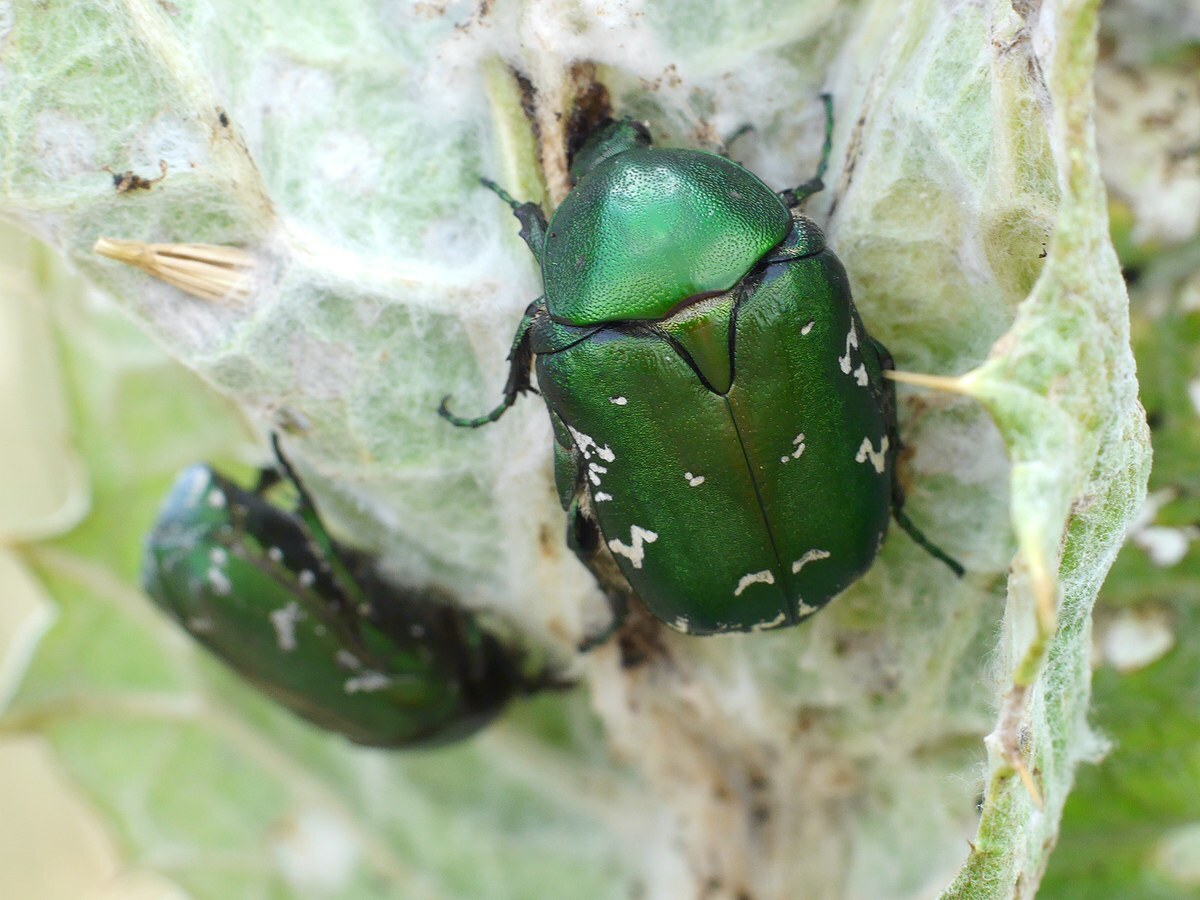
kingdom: Animalia
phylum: Arthropoda
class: Insecta
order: Coleoptera
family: Scarabaeidae
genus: Protaetia
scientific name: Protaetia ungarica
